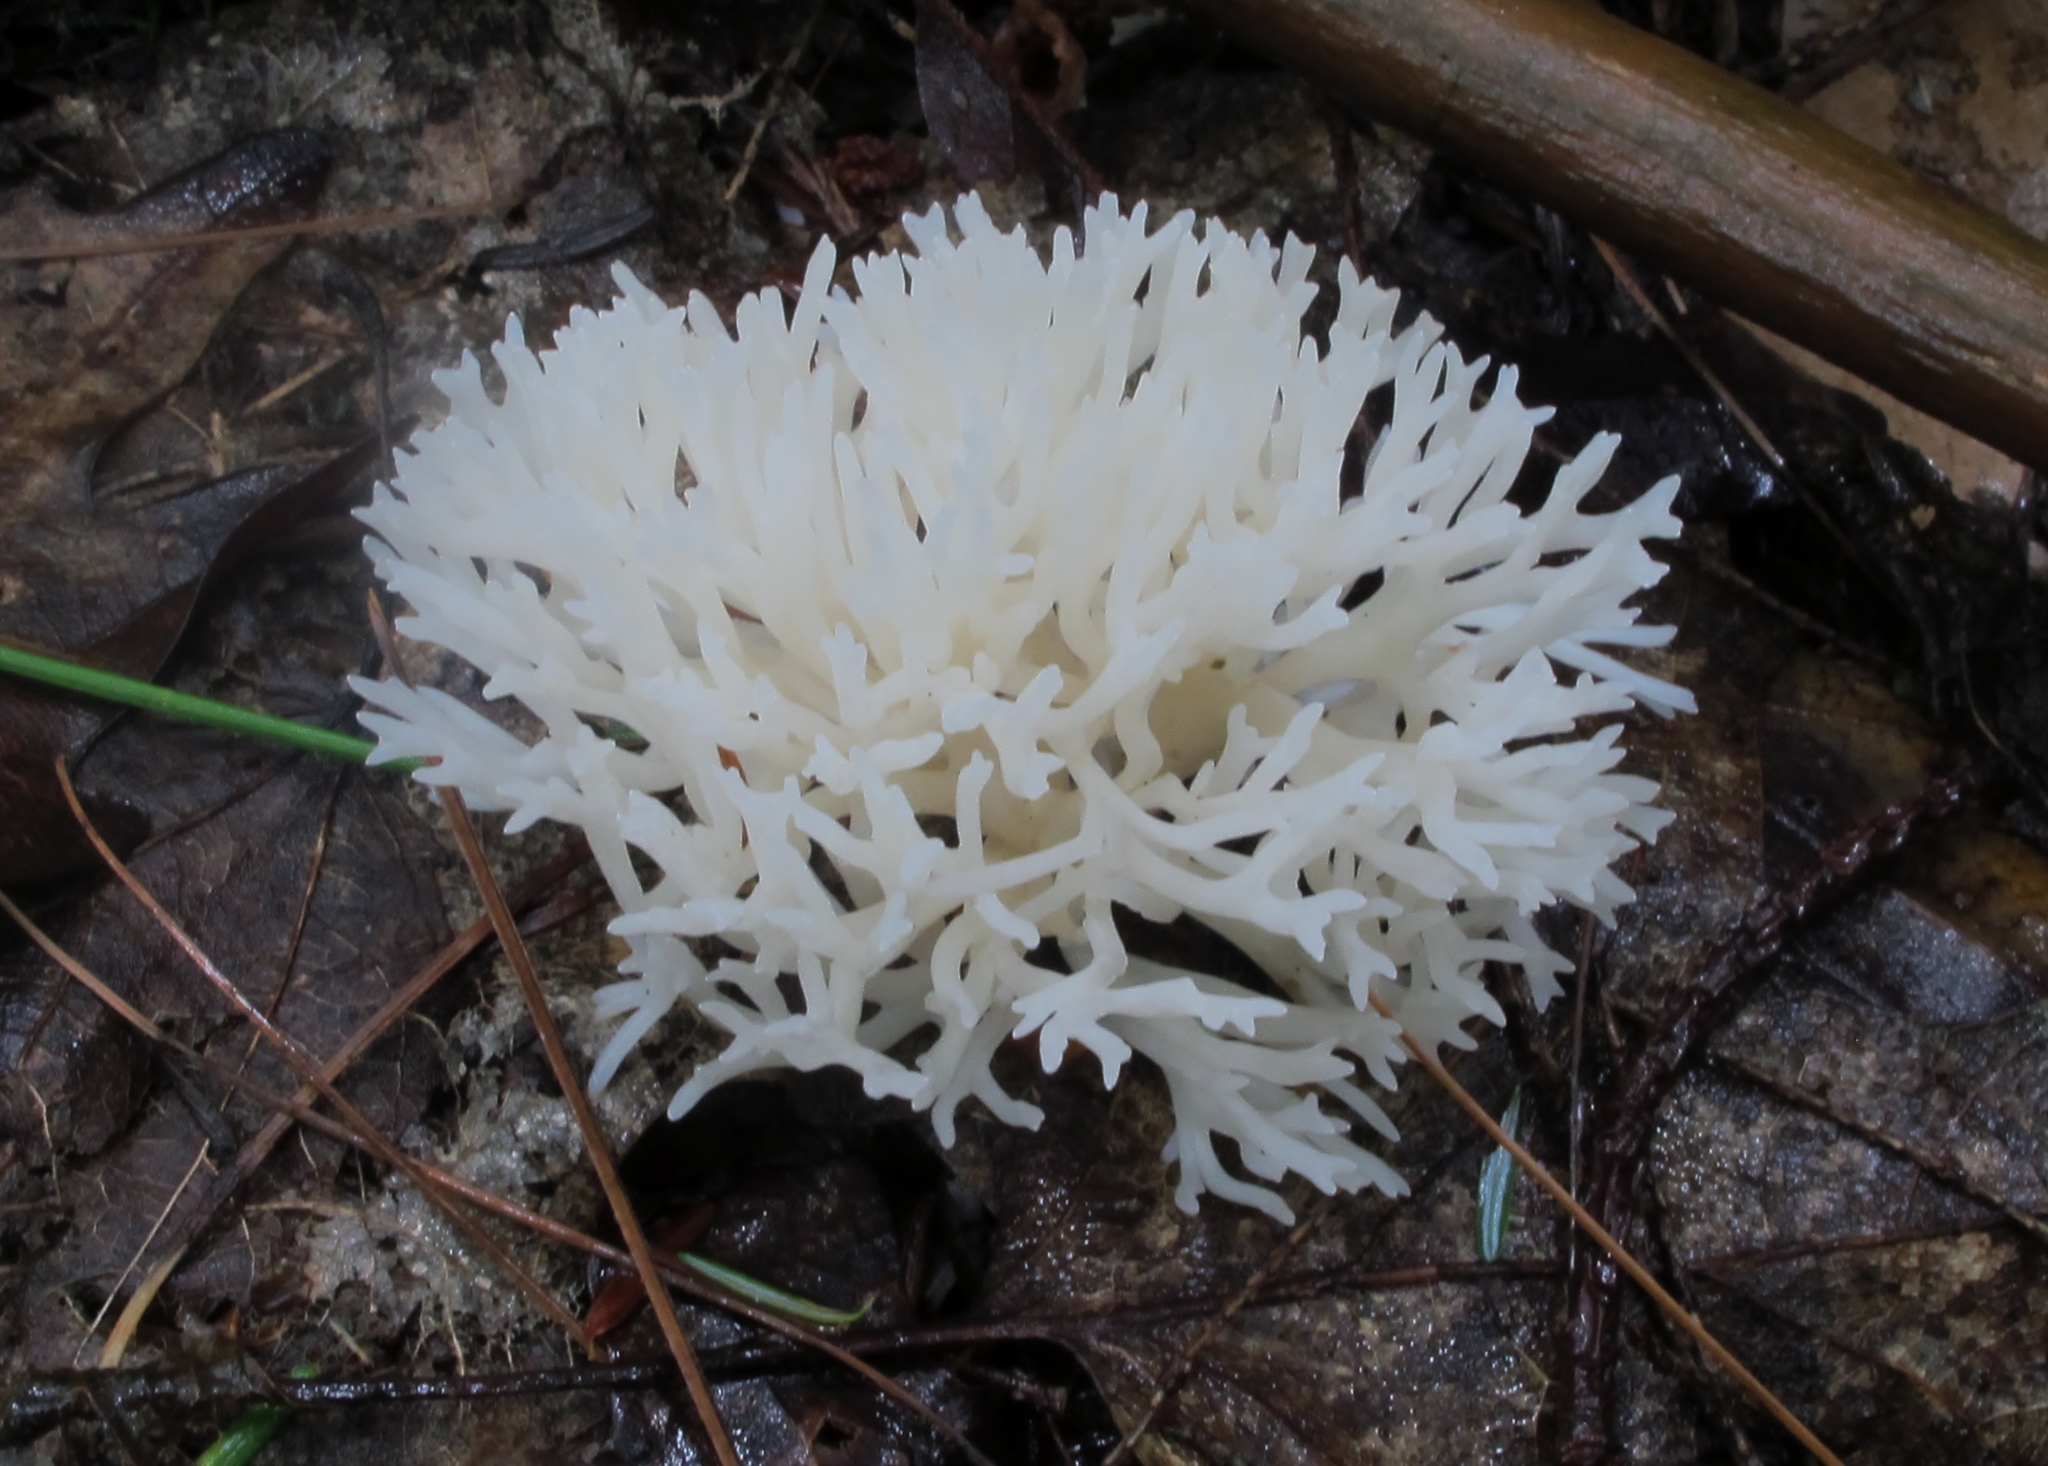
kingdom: Fungi
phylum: Basidiomycota
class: Agaricomycetes
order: Agaricales
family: Clavariaceae
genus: Ramariopsis
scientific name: Ramariopsis kunzei
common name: Ivory coral
